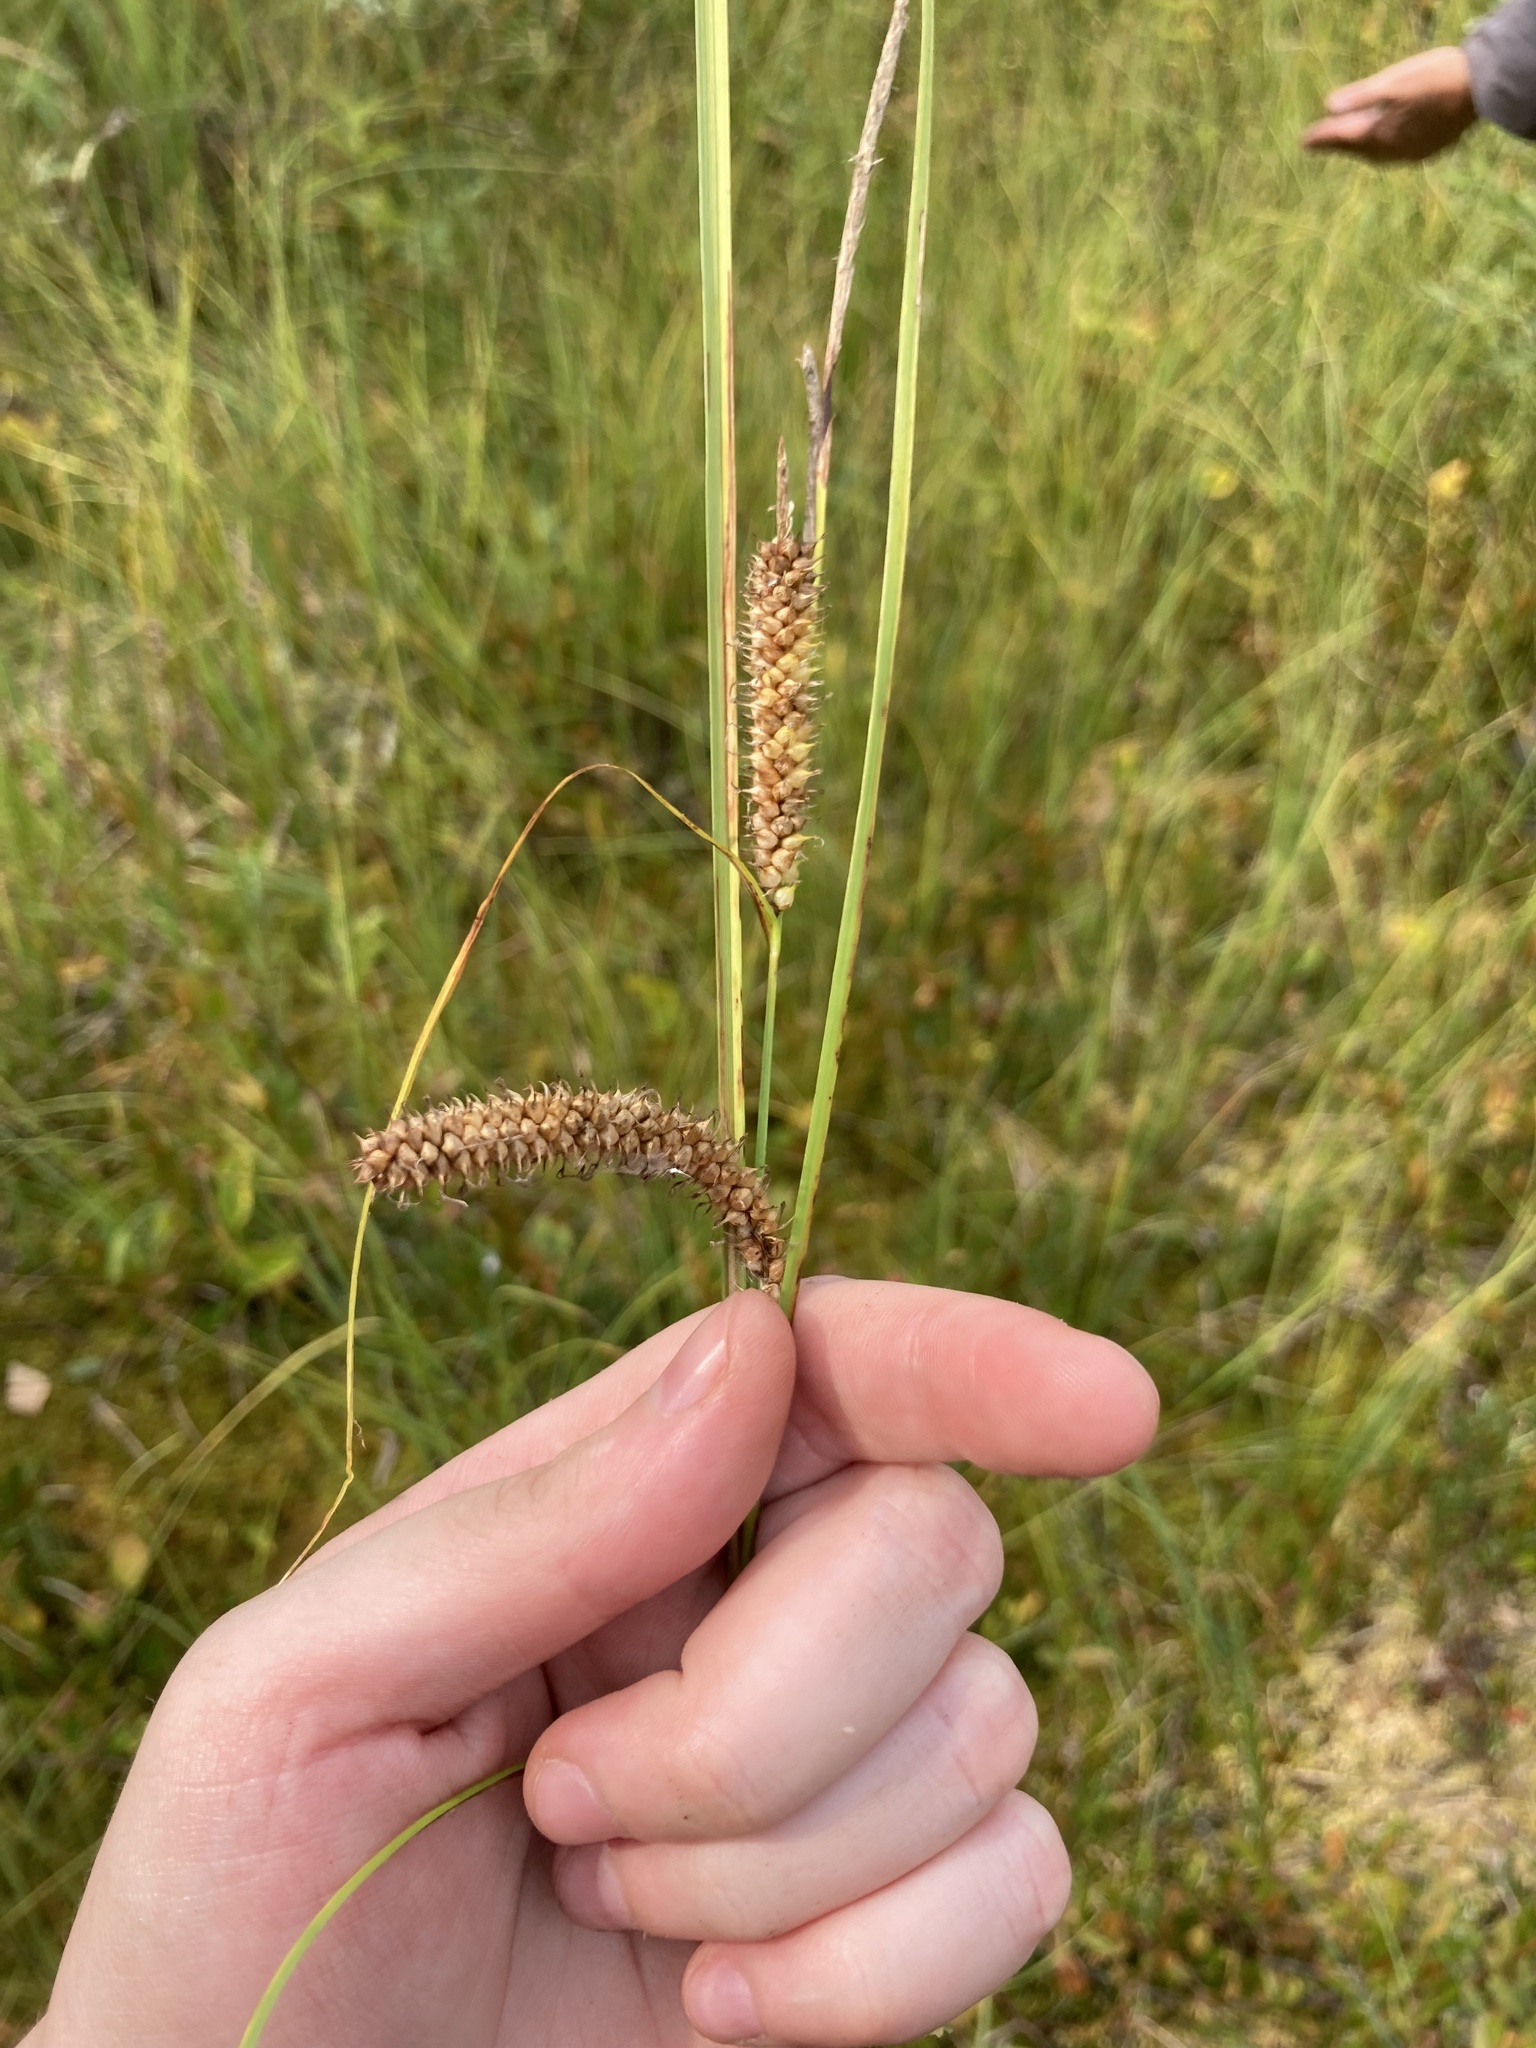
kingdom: Plantae
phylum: Tracheophyta
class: Liliopsida
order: Poales
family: Cyperaceae
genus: Carex
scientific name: Carex rostrata
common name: Bottle sedge
